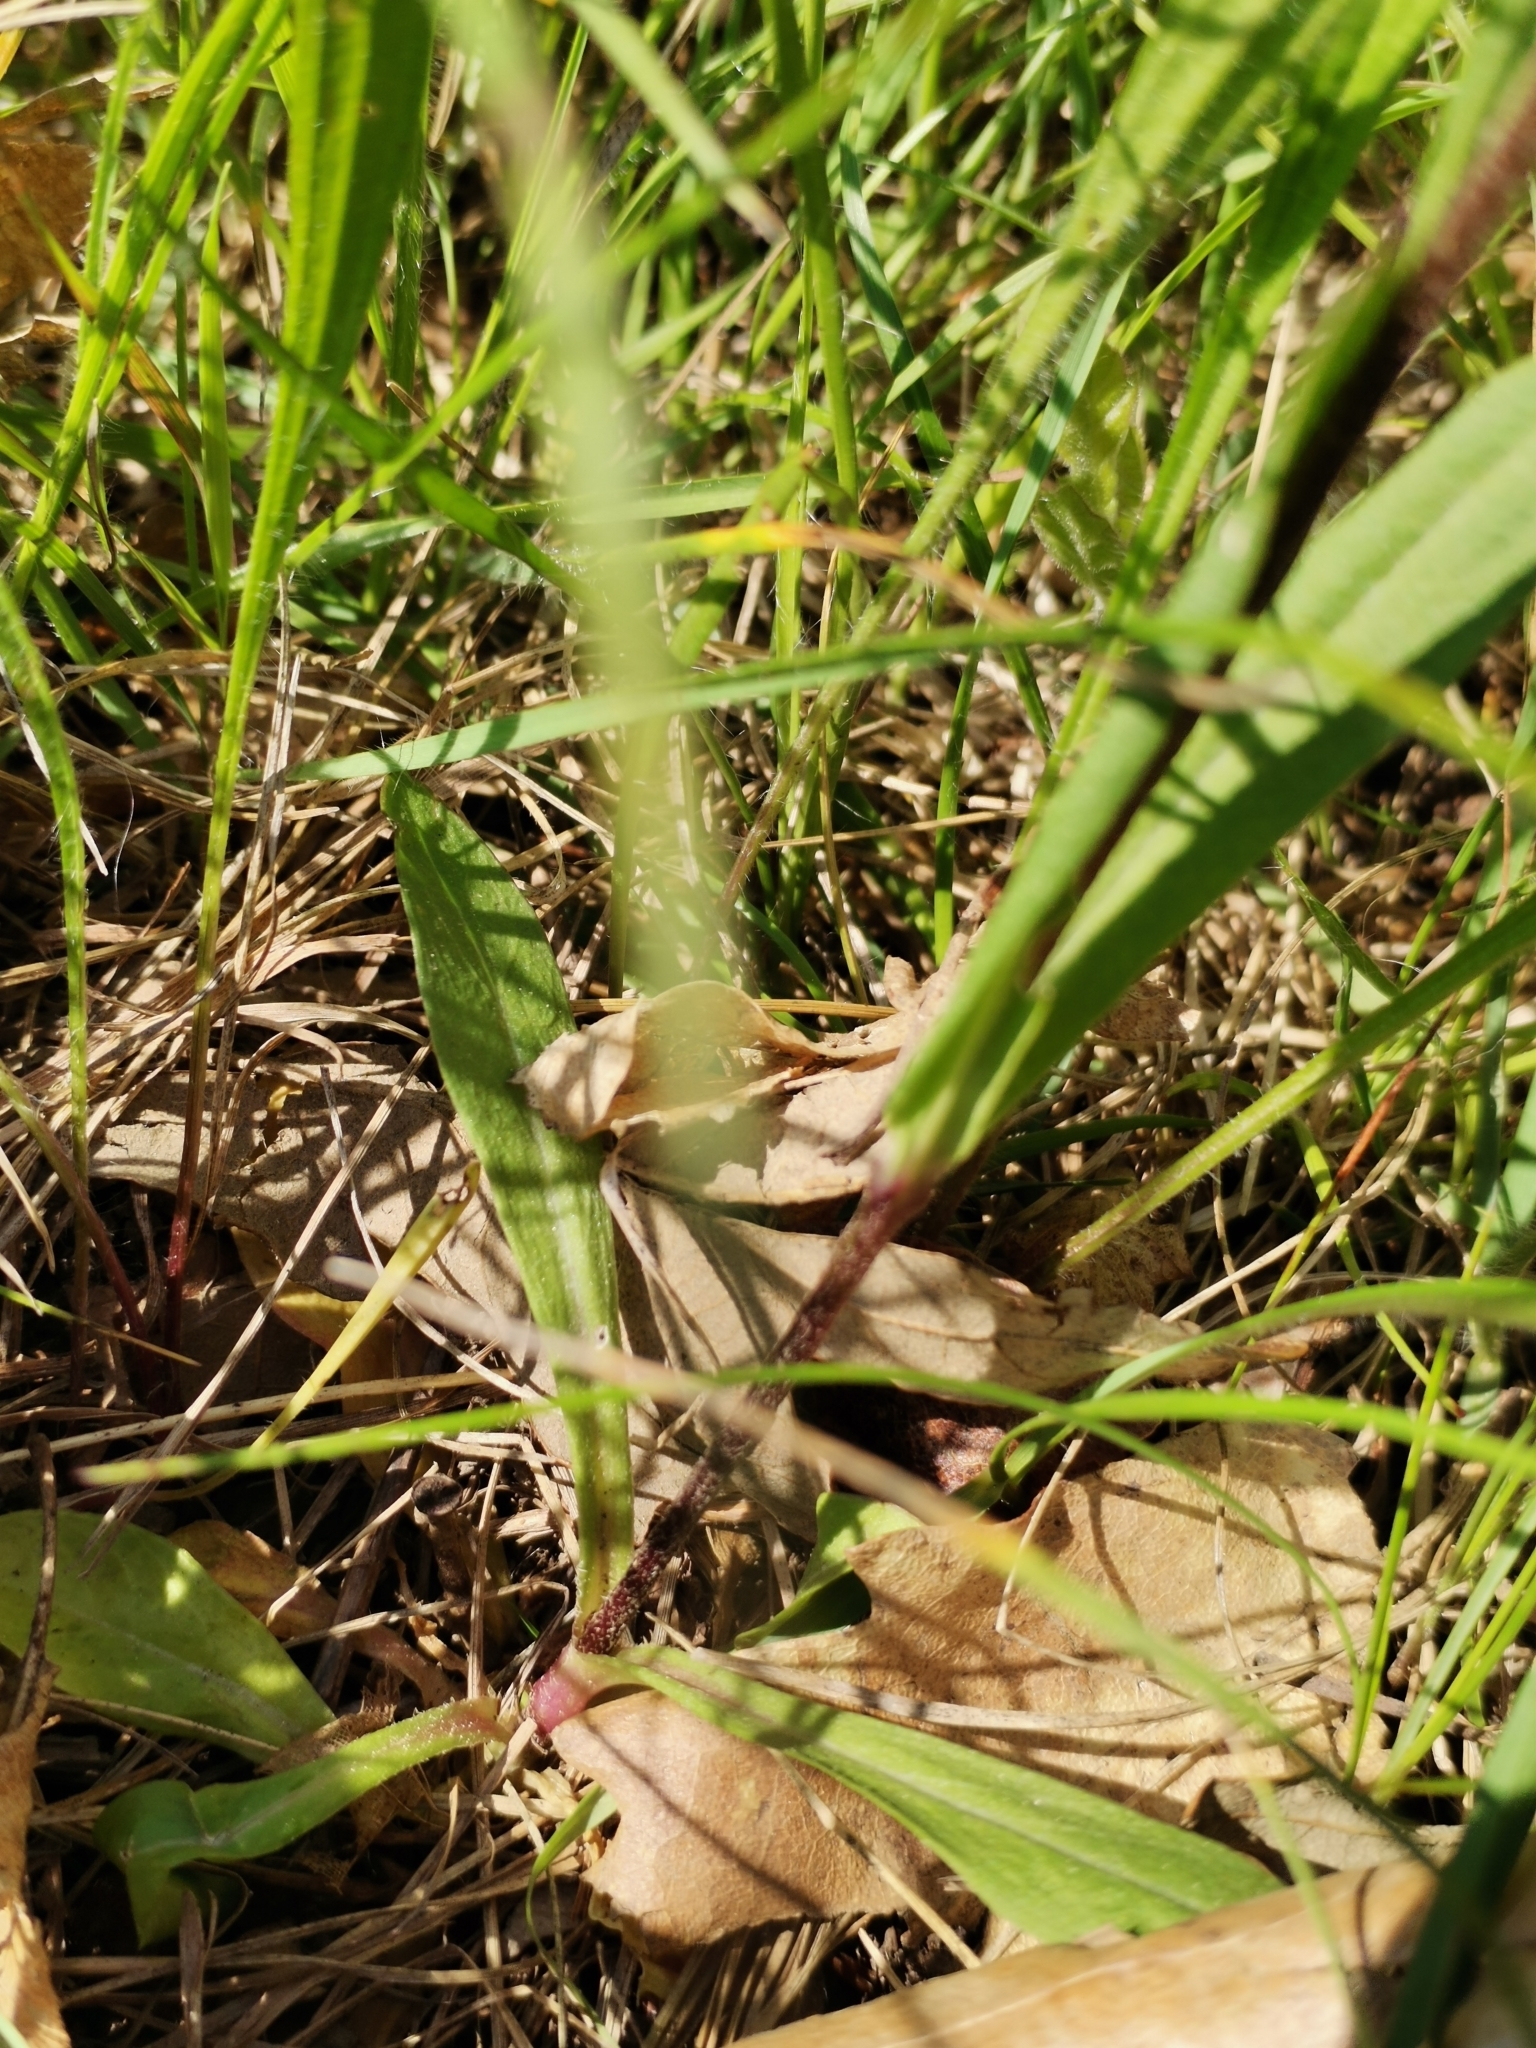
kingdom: Plantae
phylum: Tracheophyta
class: Magnoliopsida
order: Caryophyllales
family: Caryophyllaceae
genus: Silene
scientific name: Silene flos-cuculi
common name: Ragged-robin
